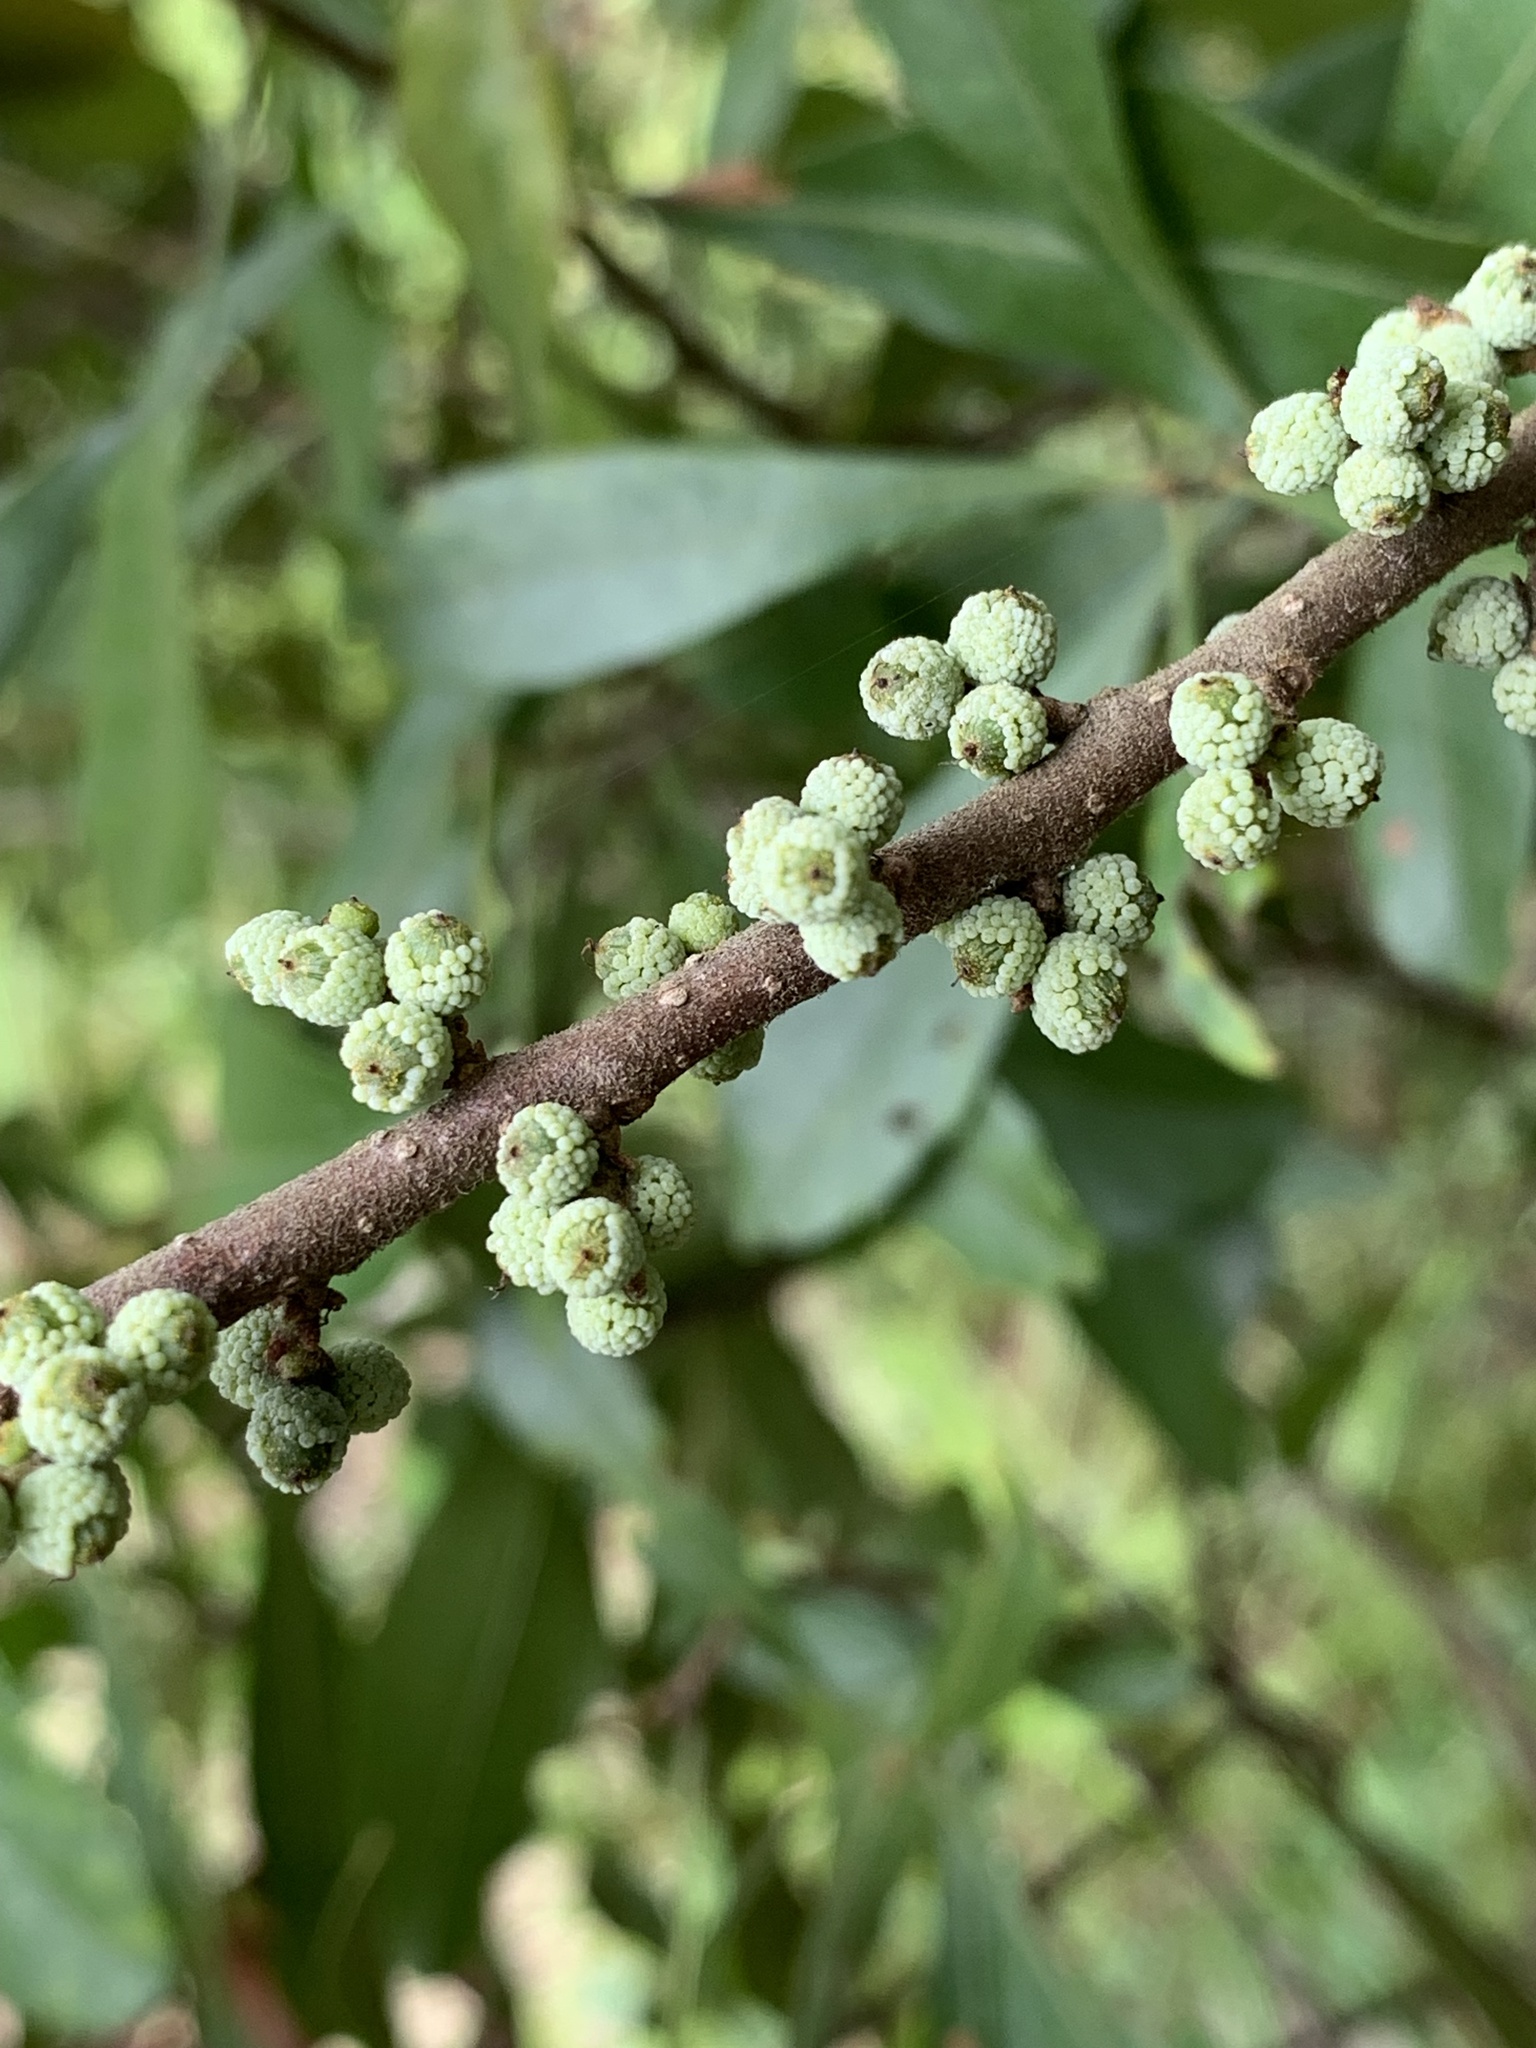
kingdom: Plantae
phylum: Tracheophyta
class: Magnoliopsida
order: Fagales
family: Myricaceae
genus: Morella
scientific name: Morella cerifera
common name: Wax myrtle
